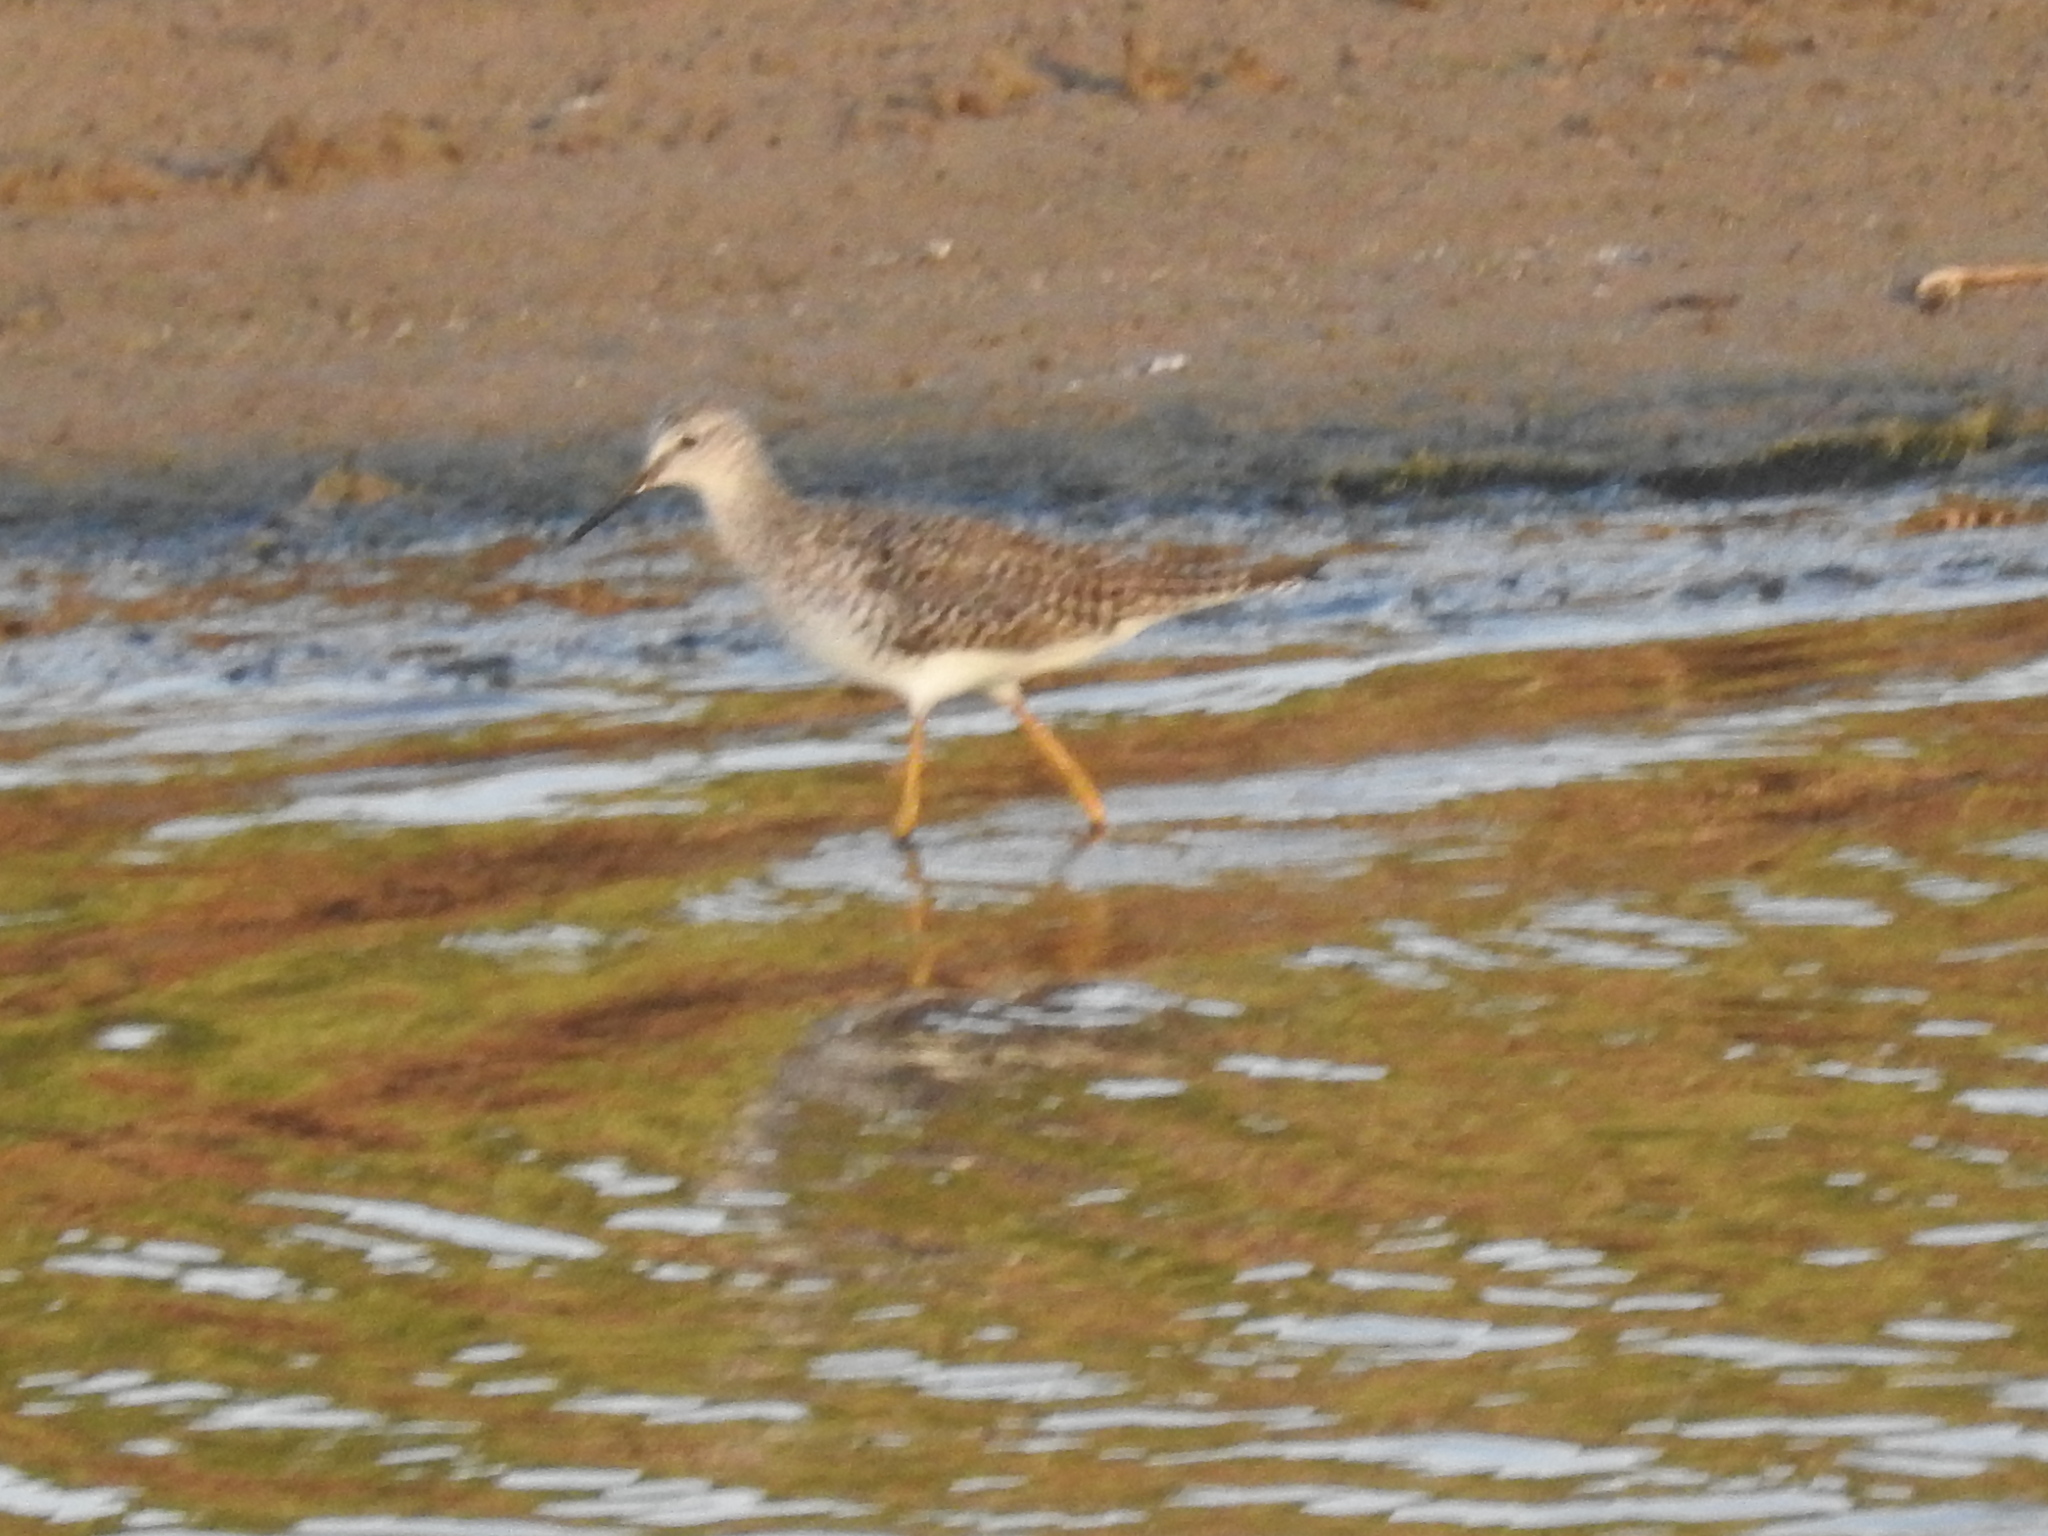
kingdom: Animalia
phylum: Chordata
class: Aves
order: Charadriiformes
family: Scolopacidae
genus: Tringa
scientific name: Tringa flavipes
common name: Lesser yellowlegs
